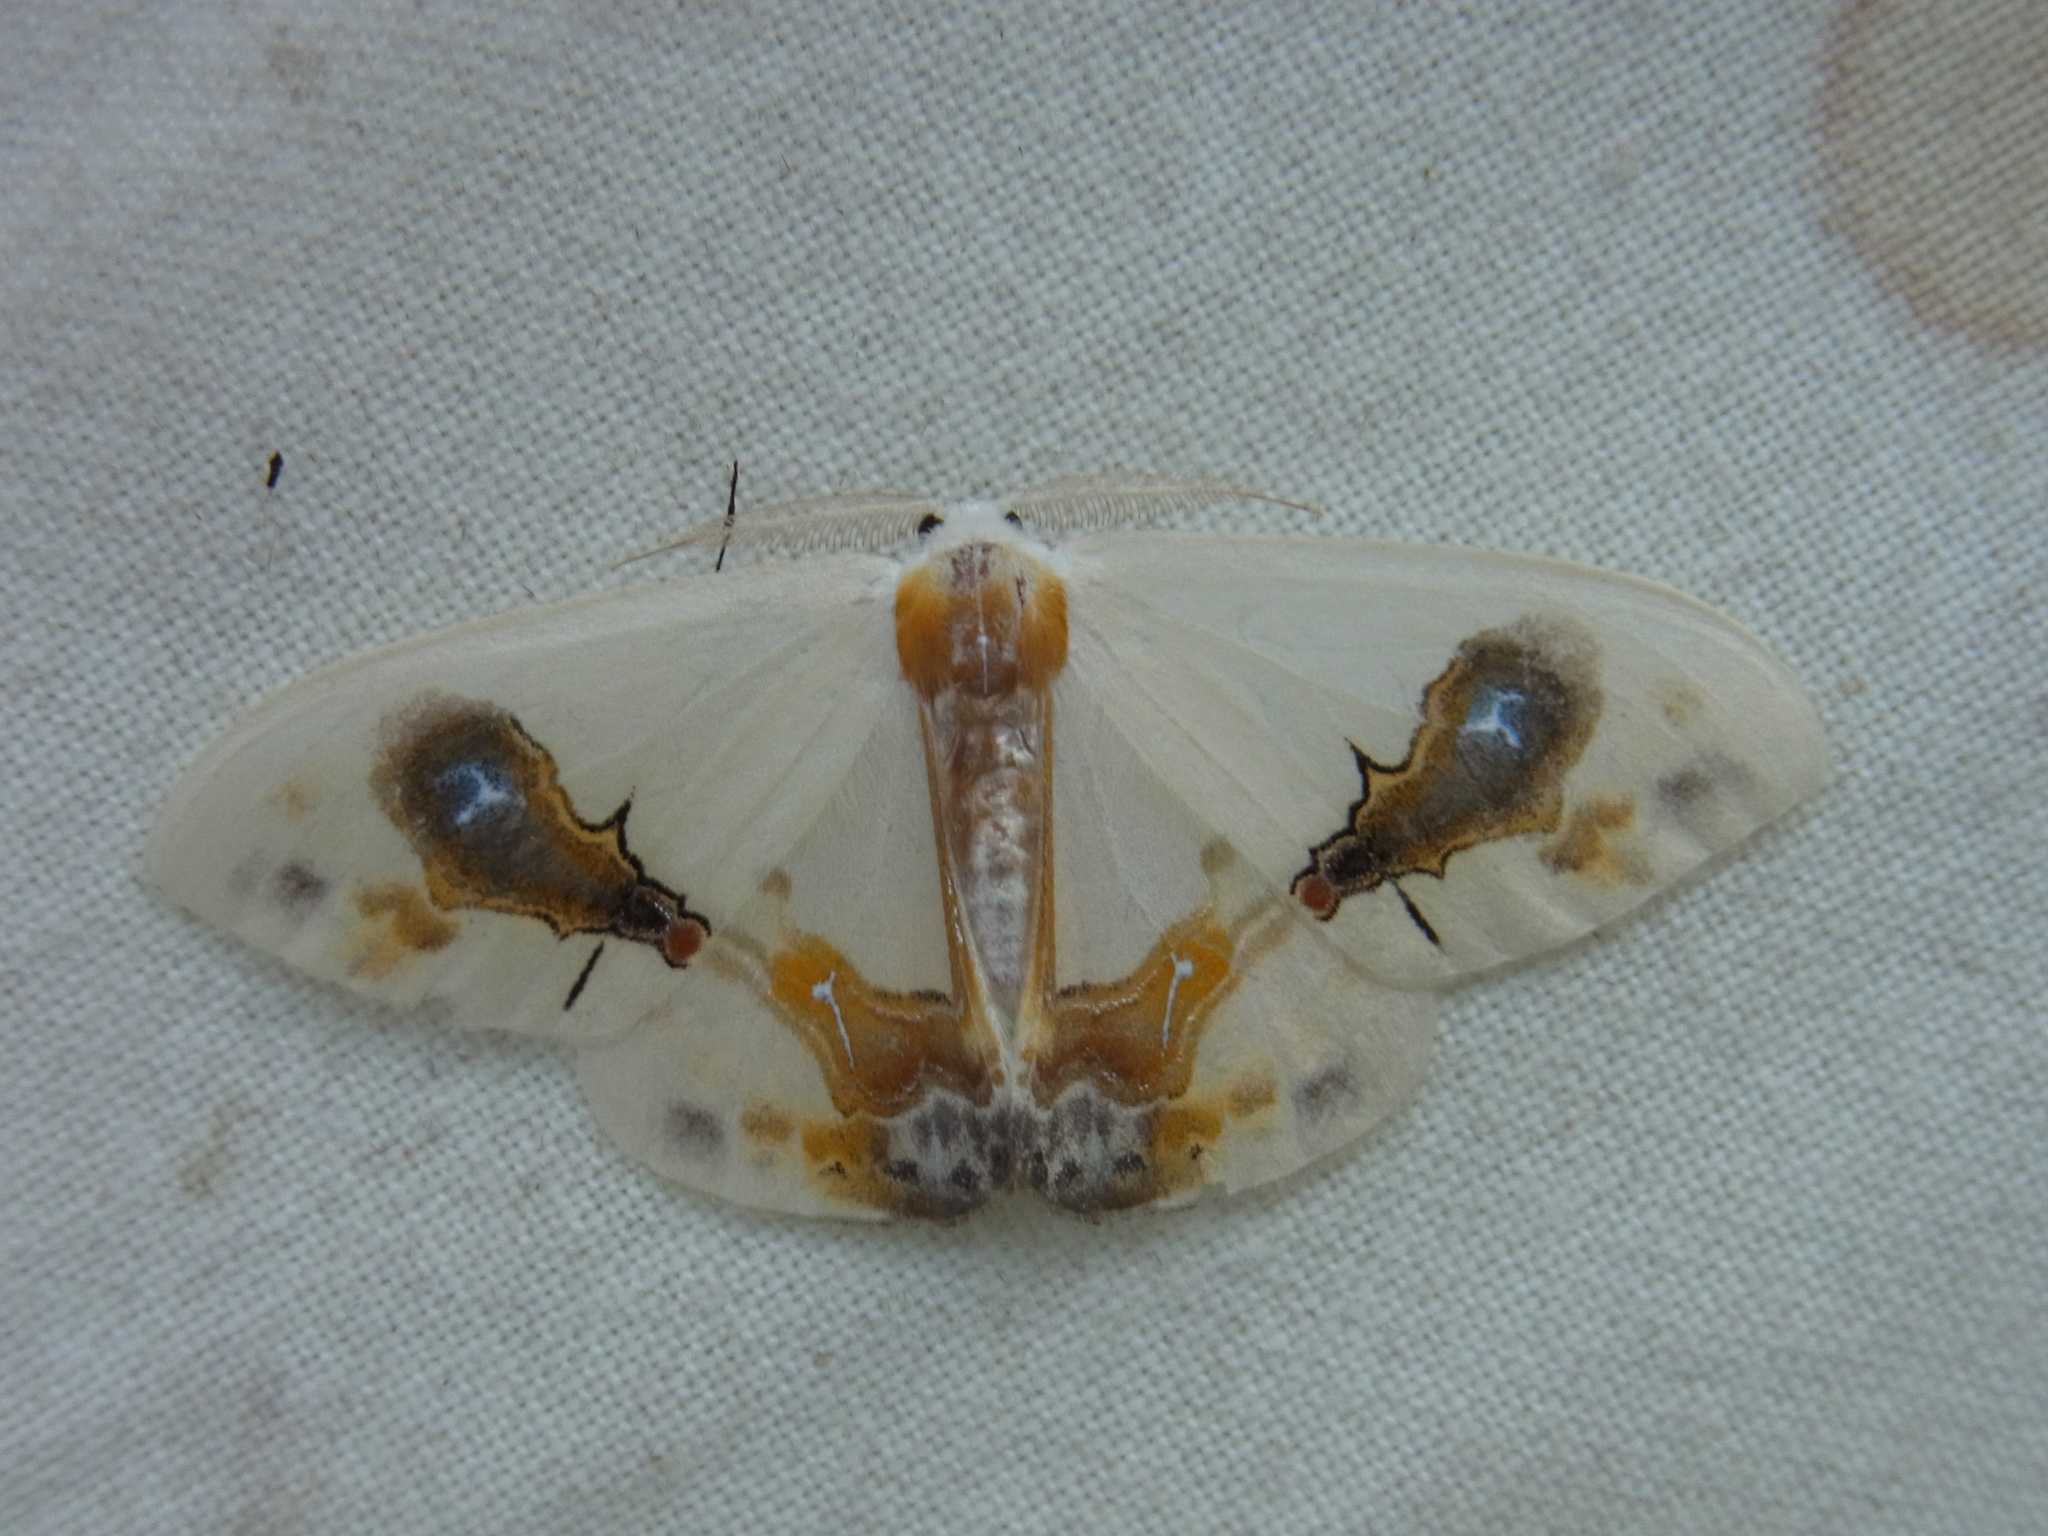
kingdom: Animalia
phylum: Arthropoda
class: Insecta
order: Lepidoptera
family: Drepanidae
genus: Macrocilix
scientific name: Macrocilix maia
